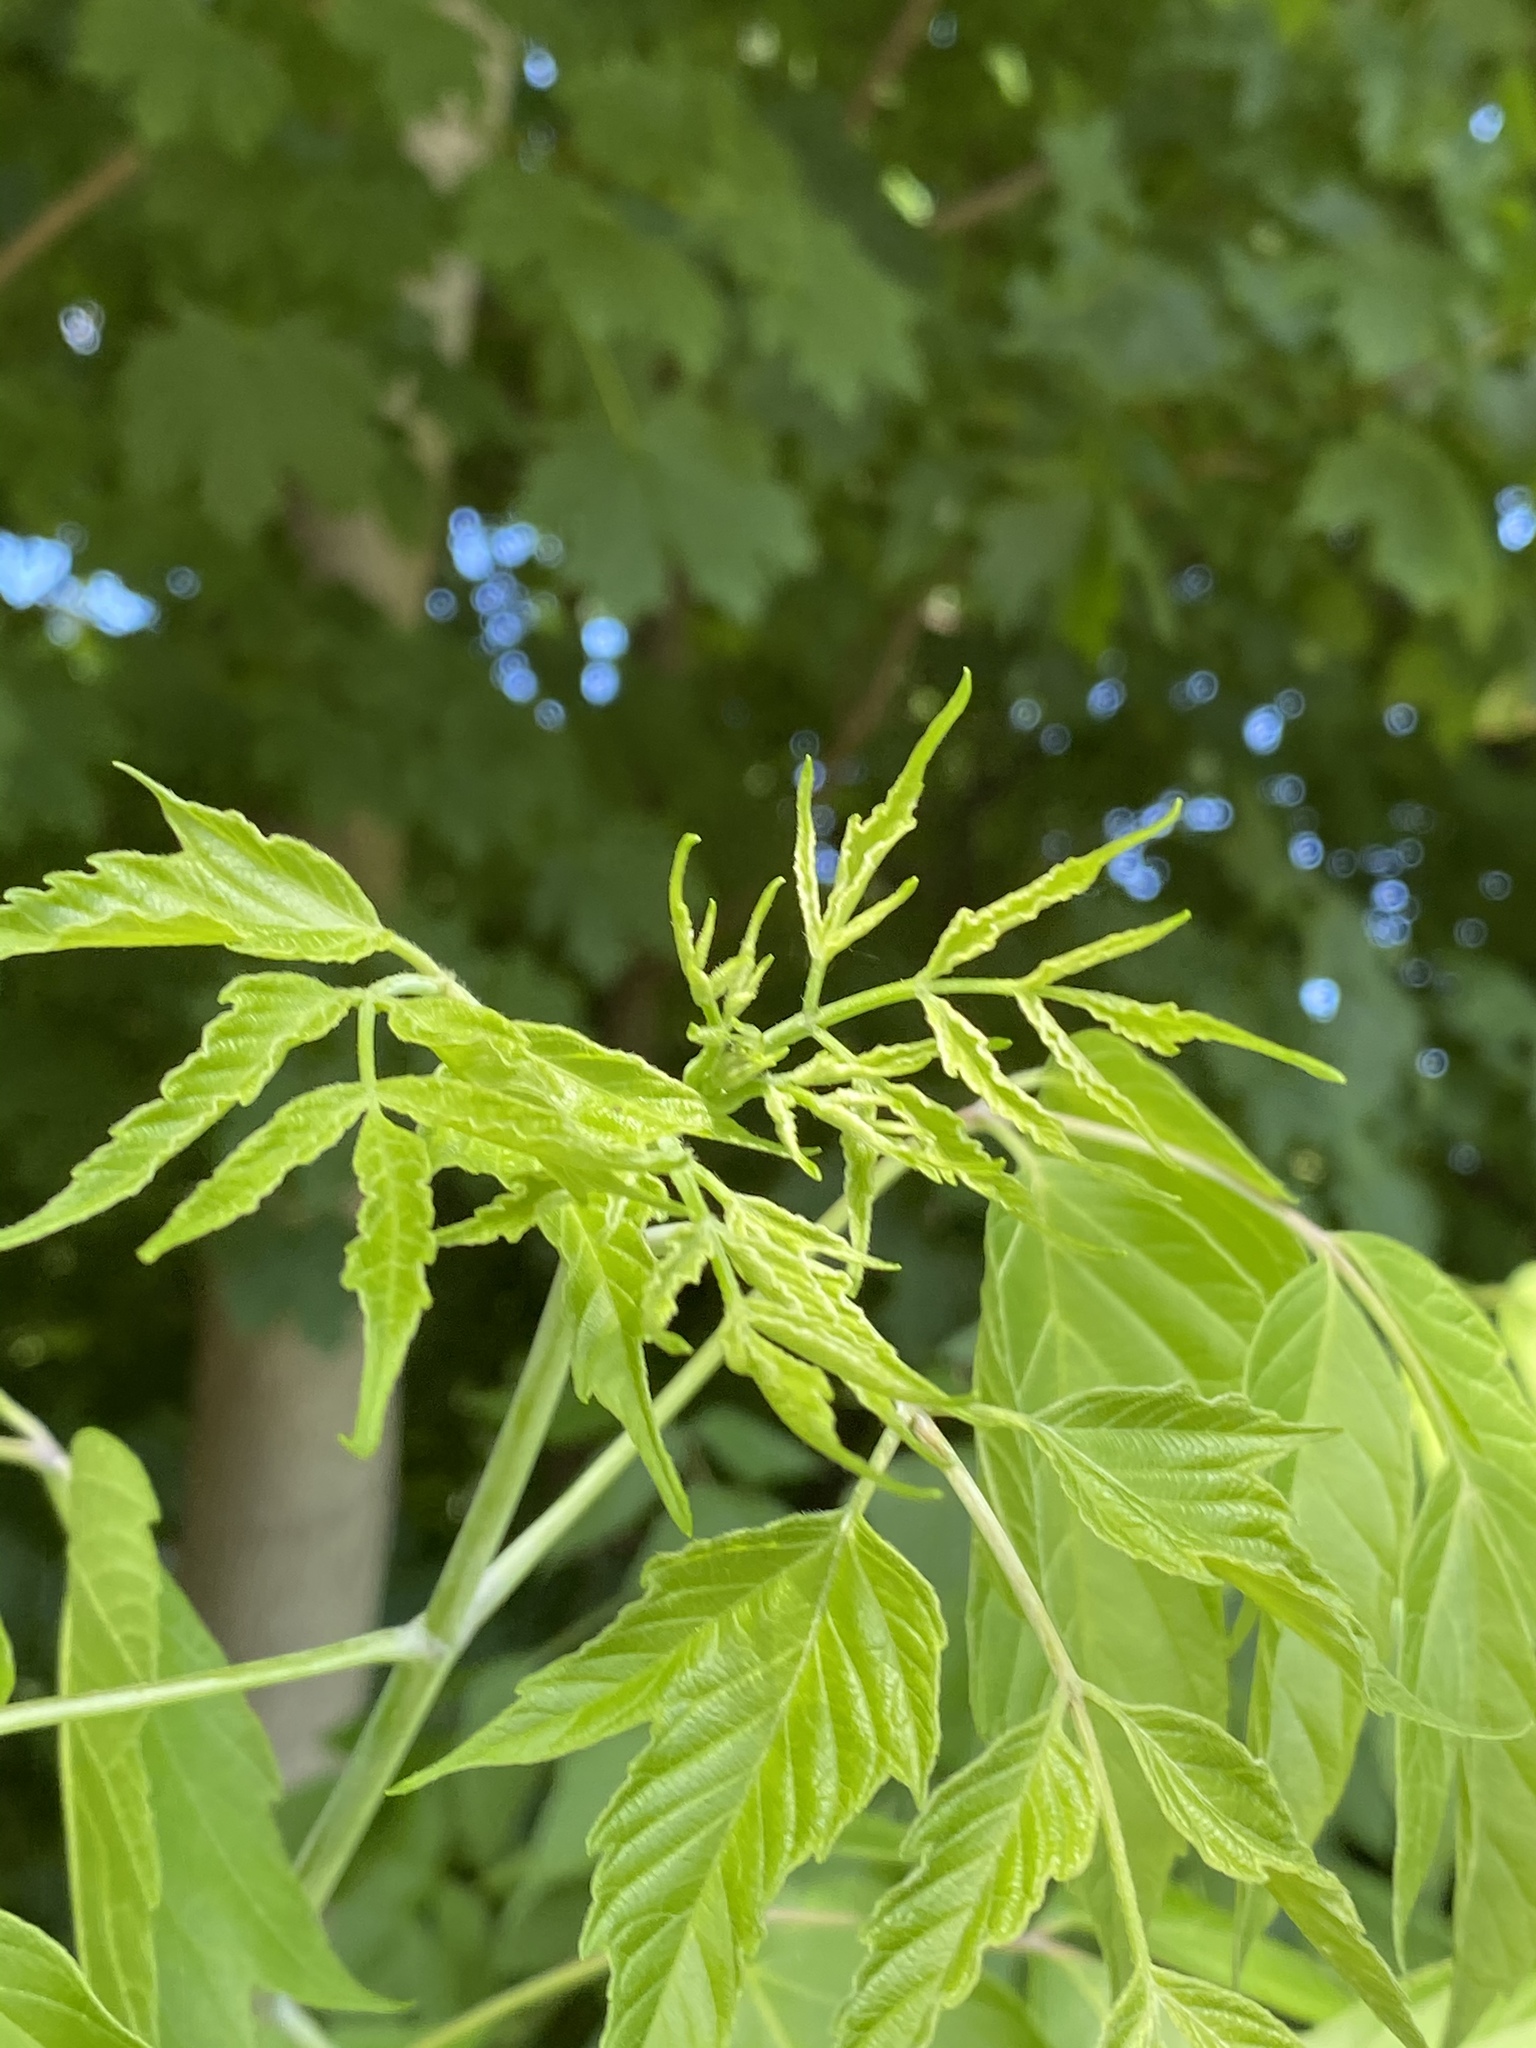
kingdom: Plantae
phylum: Tracheophyta
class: Magnoliopsida
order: Sapindales
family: Sapindaceae
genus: Acer
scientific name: Acer negundo
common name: Ashleaf maple
